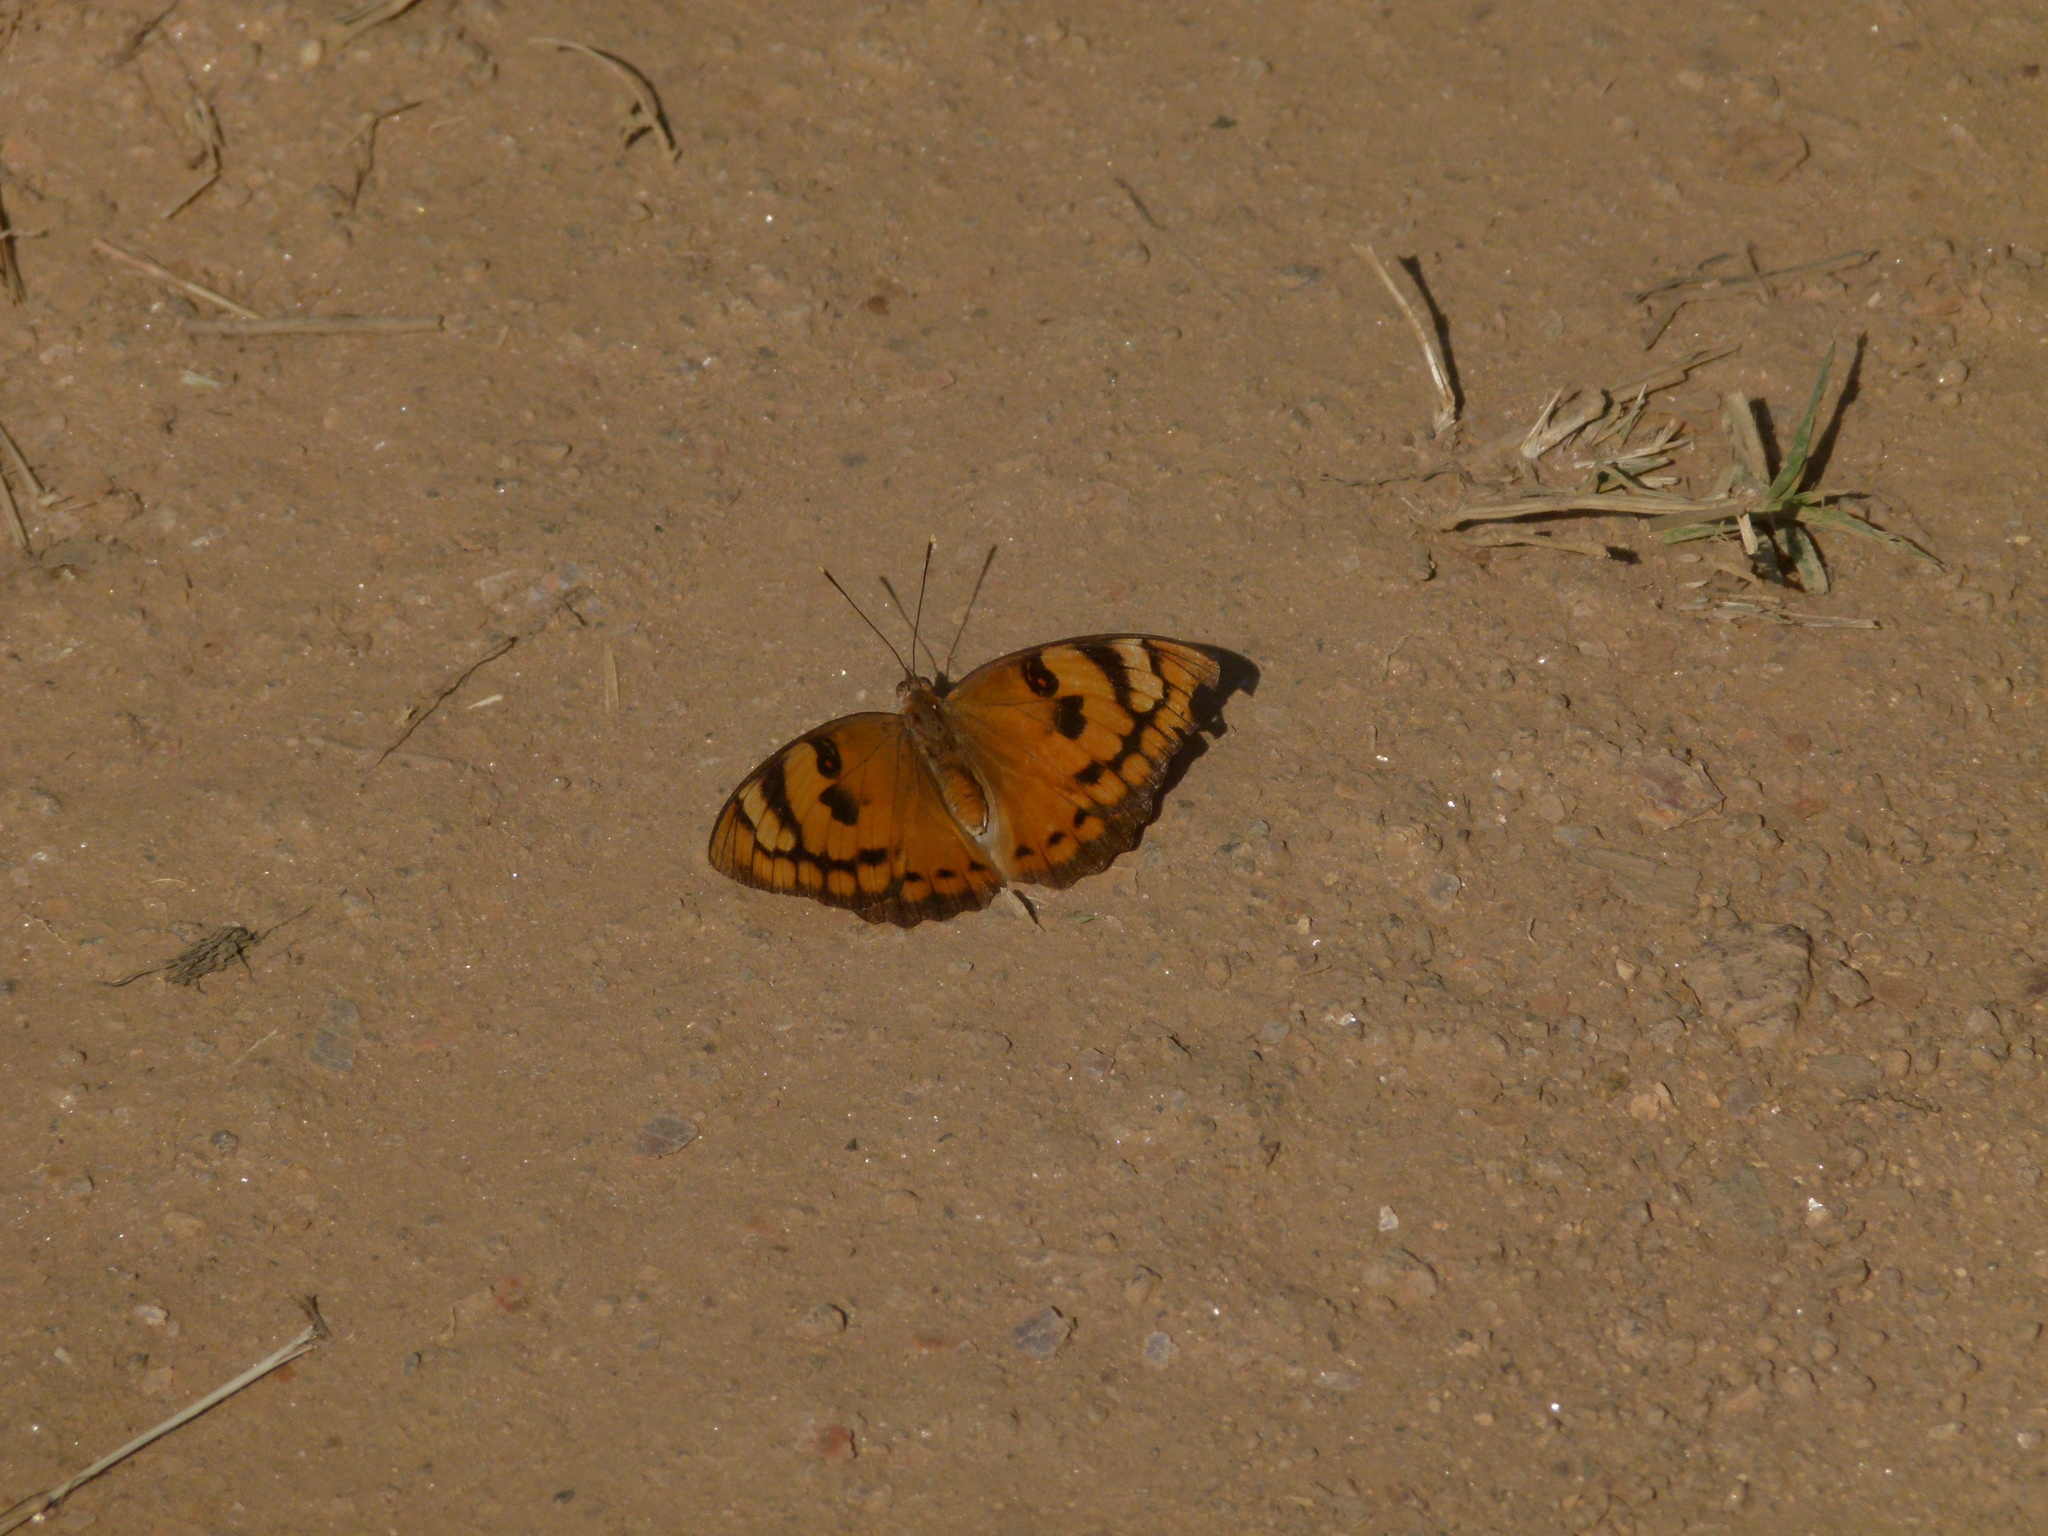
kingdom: Animalia
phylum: Arthropoda
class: Insecta
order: Lepidoptera
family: Nymphalidae
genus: Euthalia
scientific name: Euthalia nais
